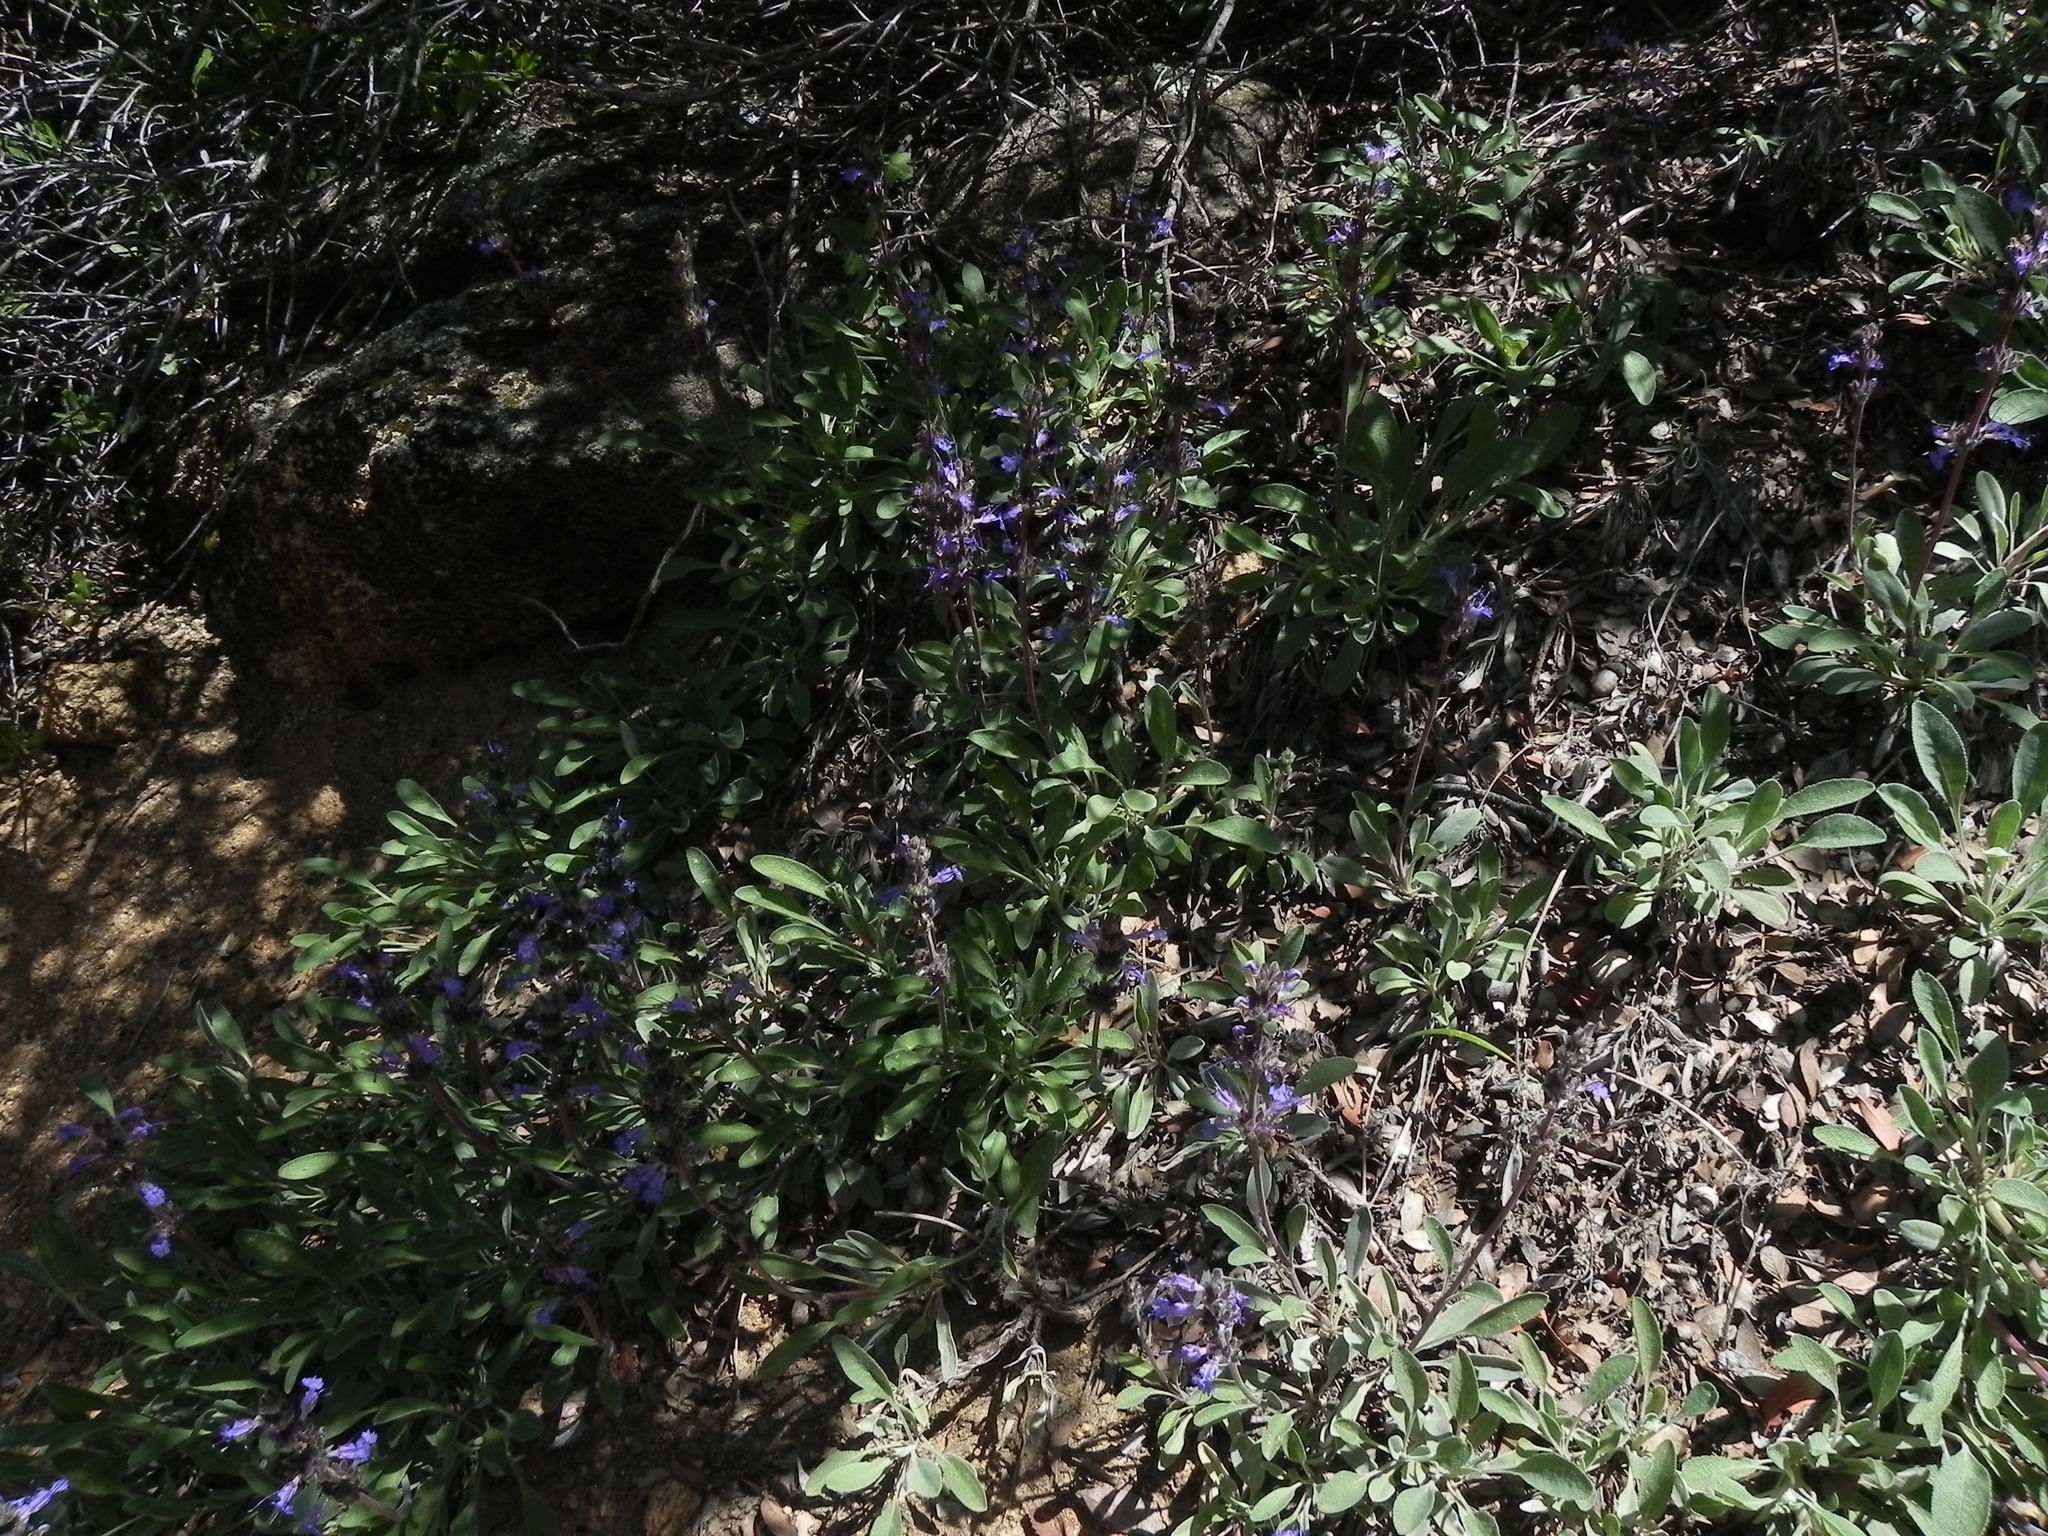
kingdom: Plantae
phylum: Tracheophyta
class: Magnoliopsida
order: Lamiales
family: Lamiaceae
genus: Salvia
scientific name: Salvia sonomensis
